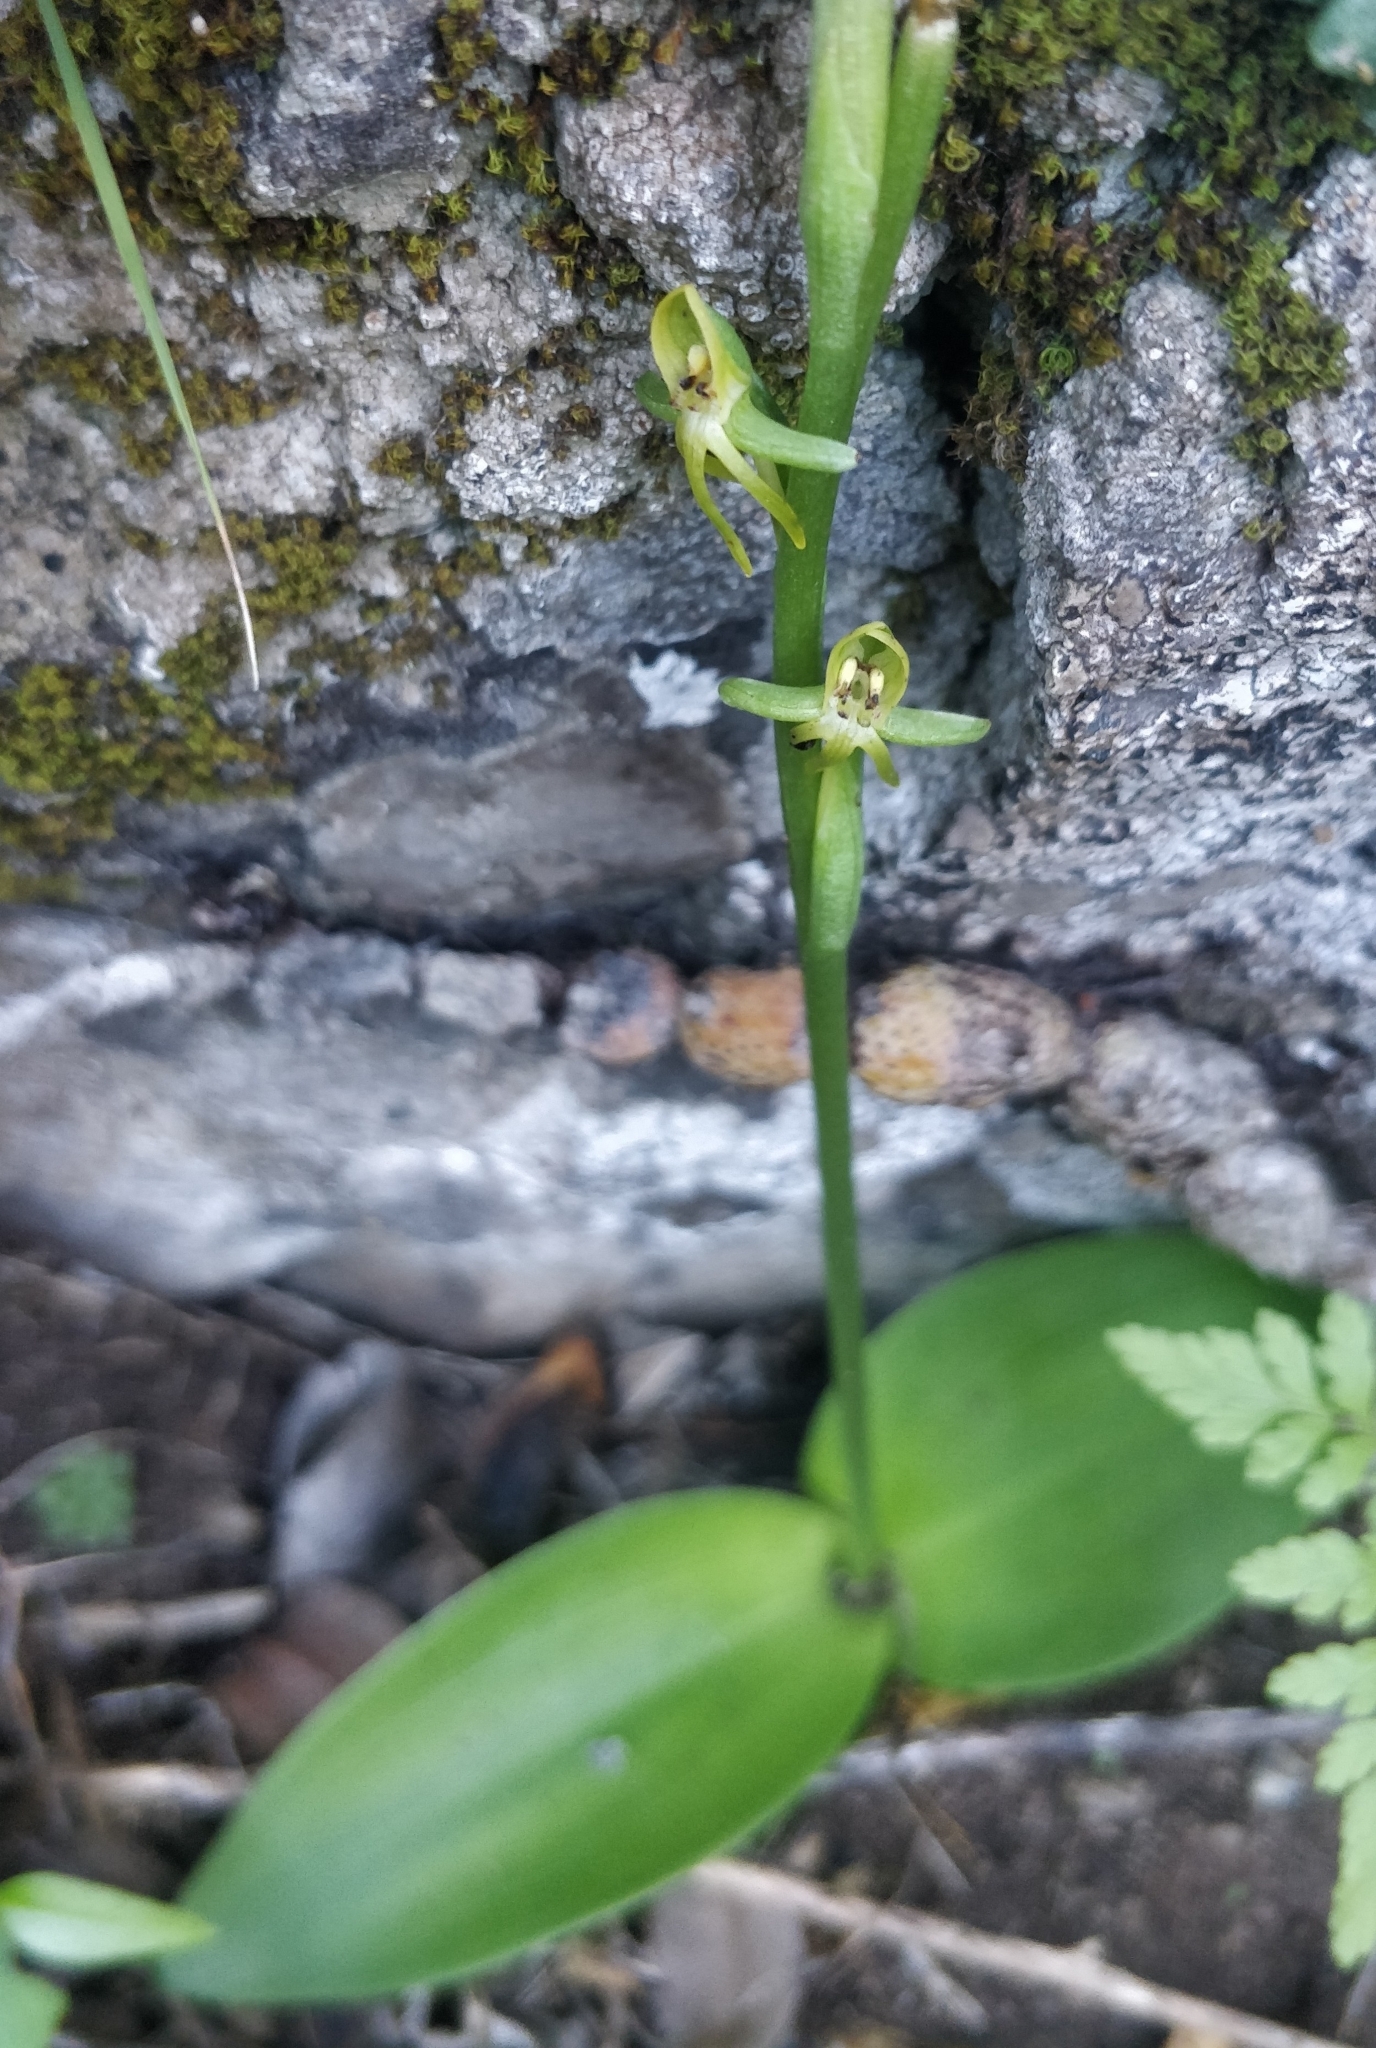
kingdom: Plantae
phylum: Tracheophyta
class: Liliopsida
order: Asparagales
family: Orchidaceae
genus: Habenaria
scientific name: Habenaria tridactylites
